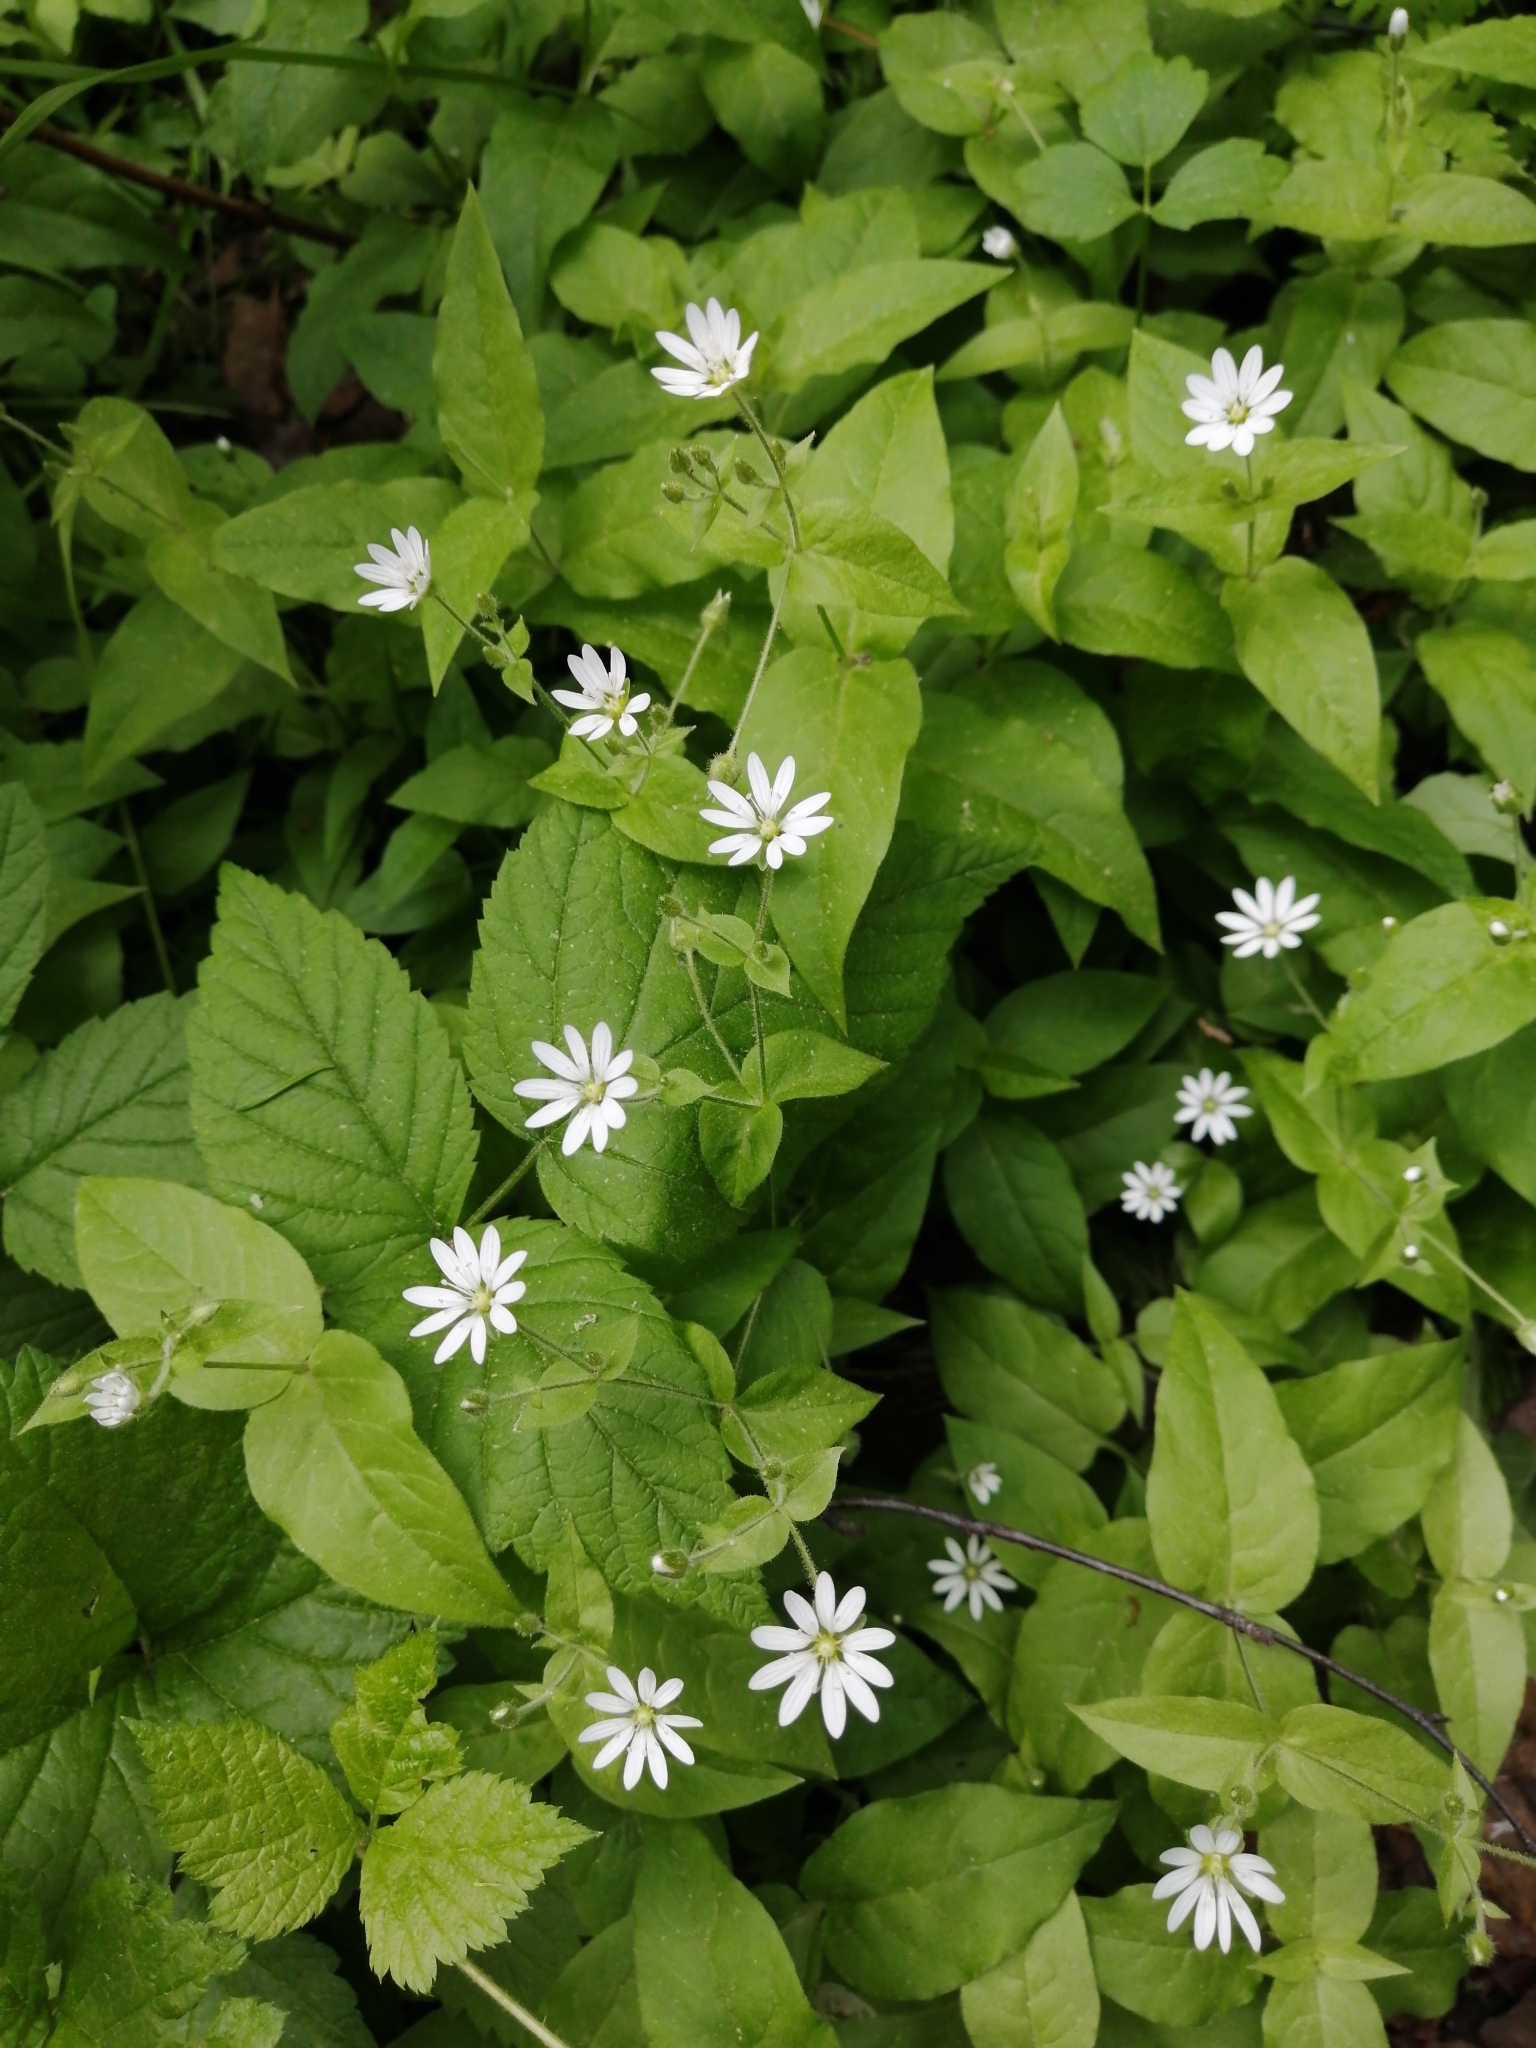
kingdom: Plantae
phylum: Tracheophyta
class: Magnoliopsida
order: Caryophyllales
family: Caryophyllaceae
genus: Stellaria
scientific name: Stellaria bungeana
